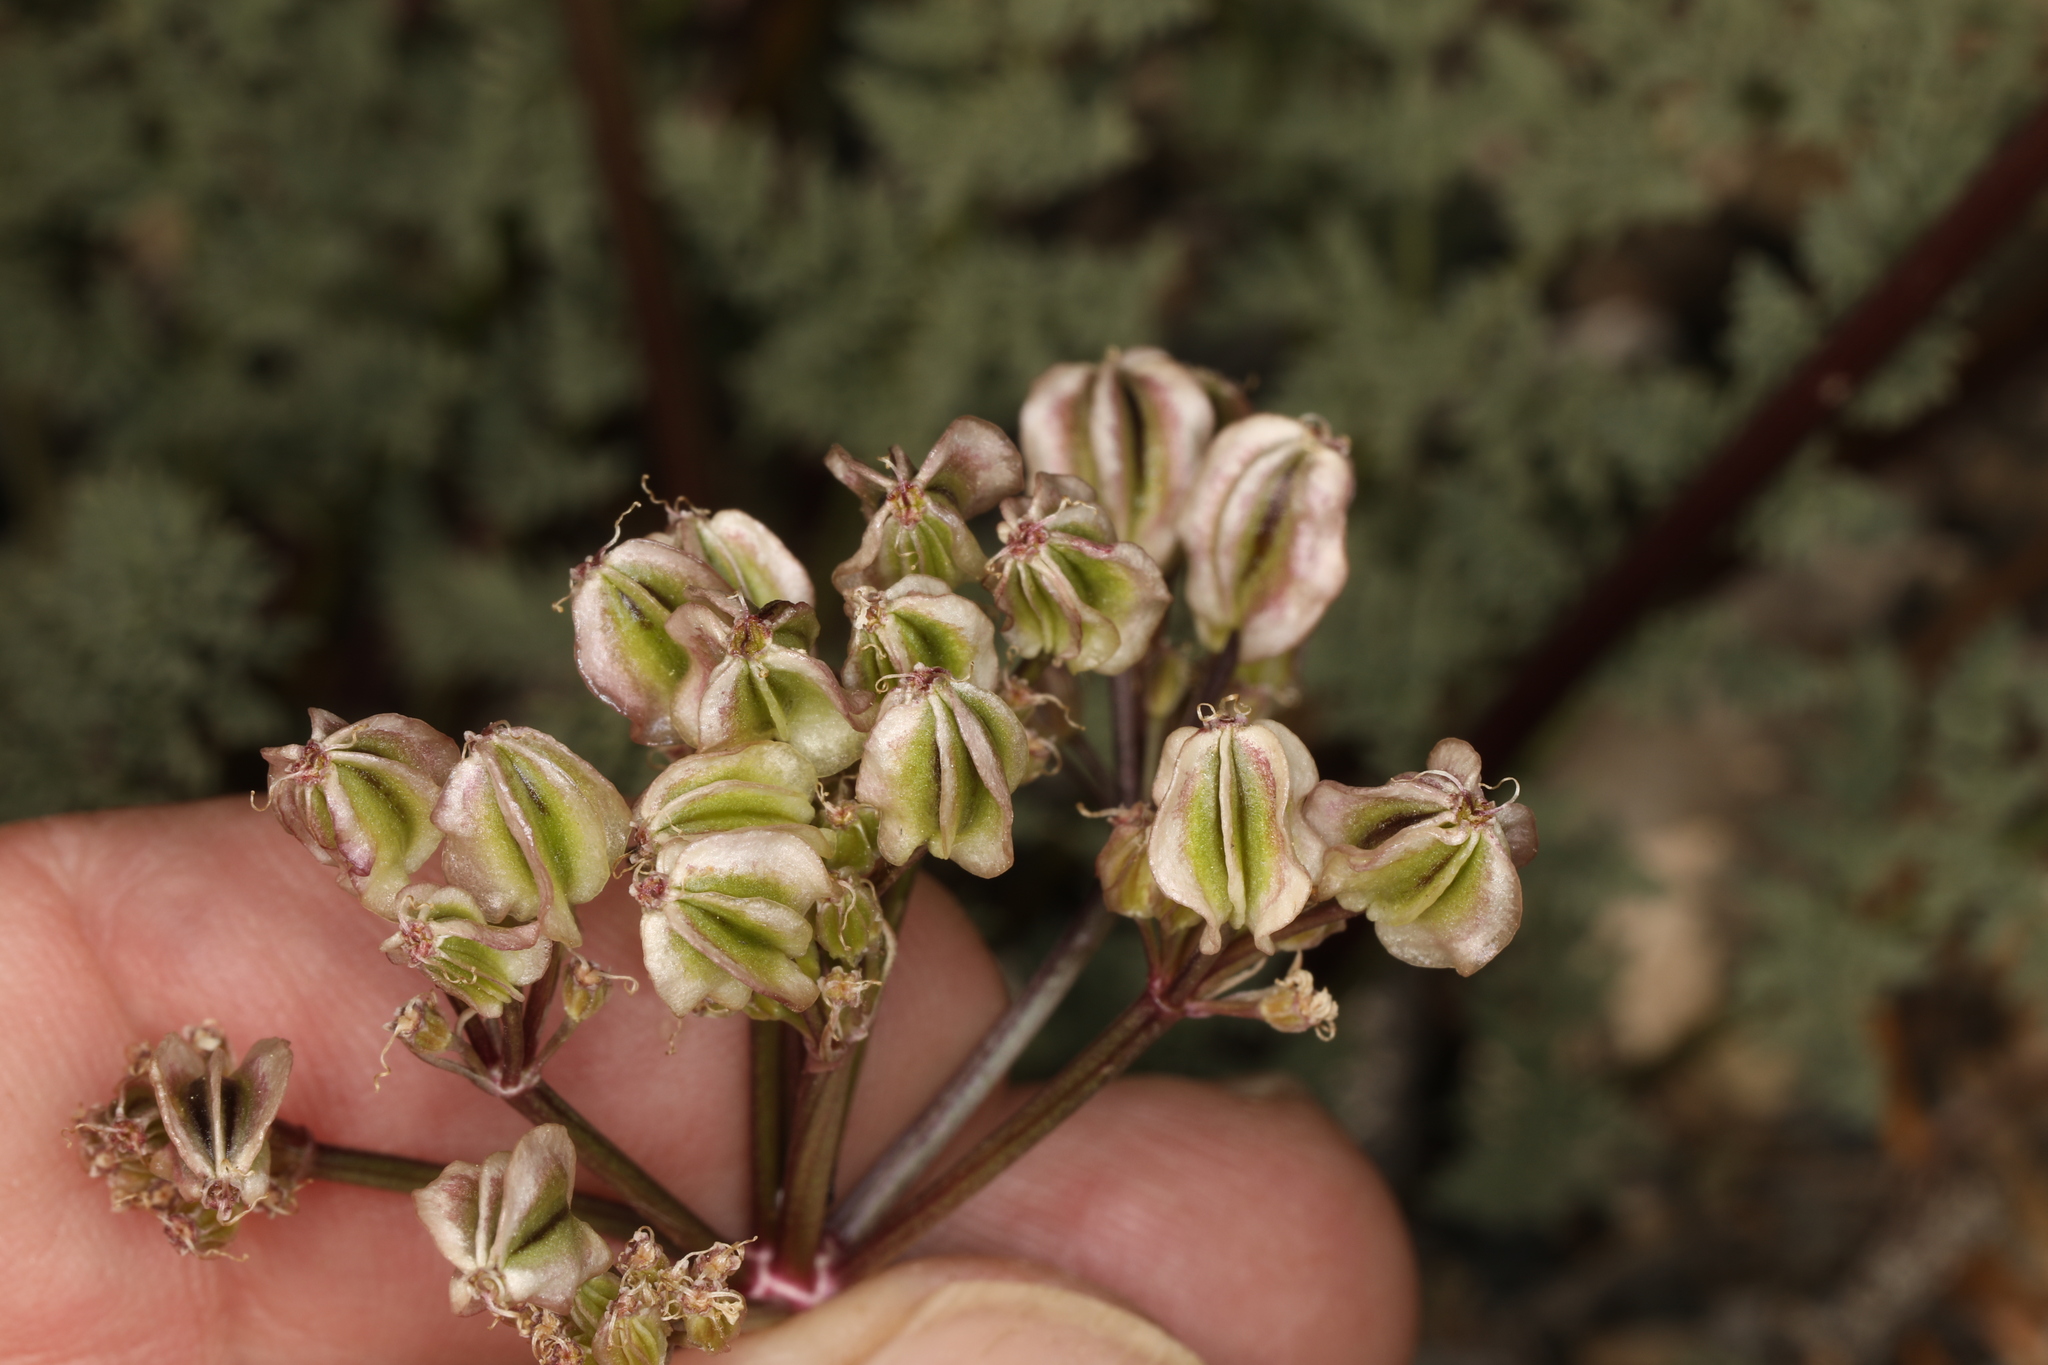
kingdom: Plantae
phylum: Tracheophyta
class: Magnoliopsida
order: Apiales
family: Apiaceae
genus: Aulospermum
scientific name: Aulospermum aboriginum
